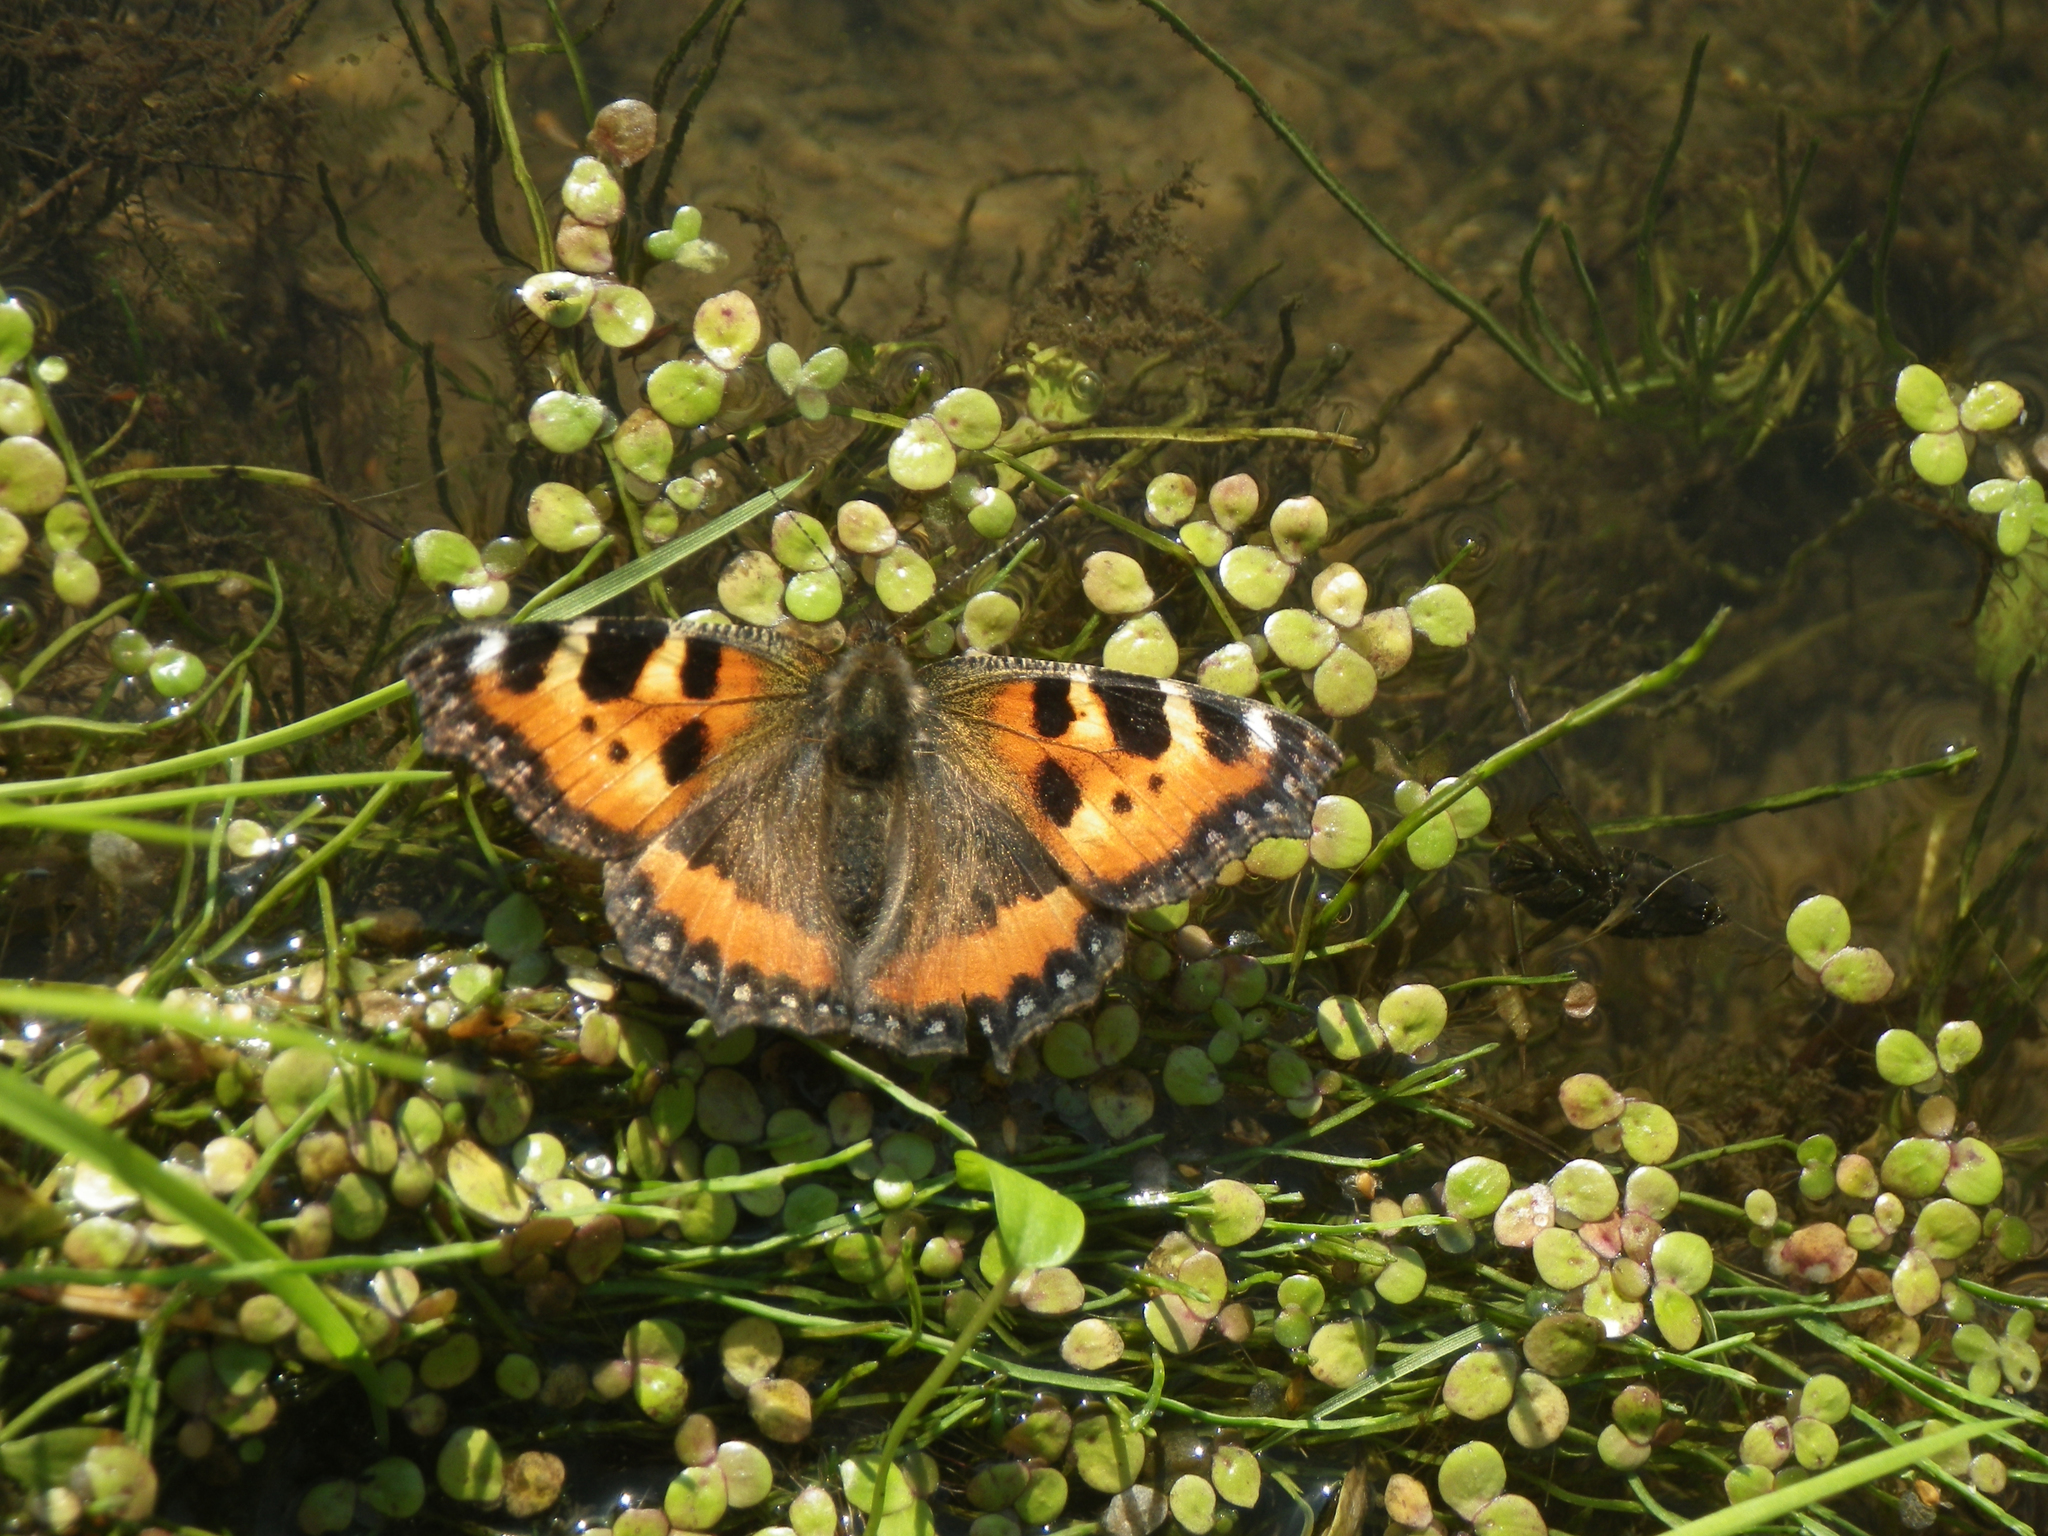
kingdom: Animalia
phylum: Arthropoda
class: Insecta
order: Lepidoptera
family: Nymphalidae
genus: Aglais
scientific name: Aglais urticae
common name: Small tortoiseshell
